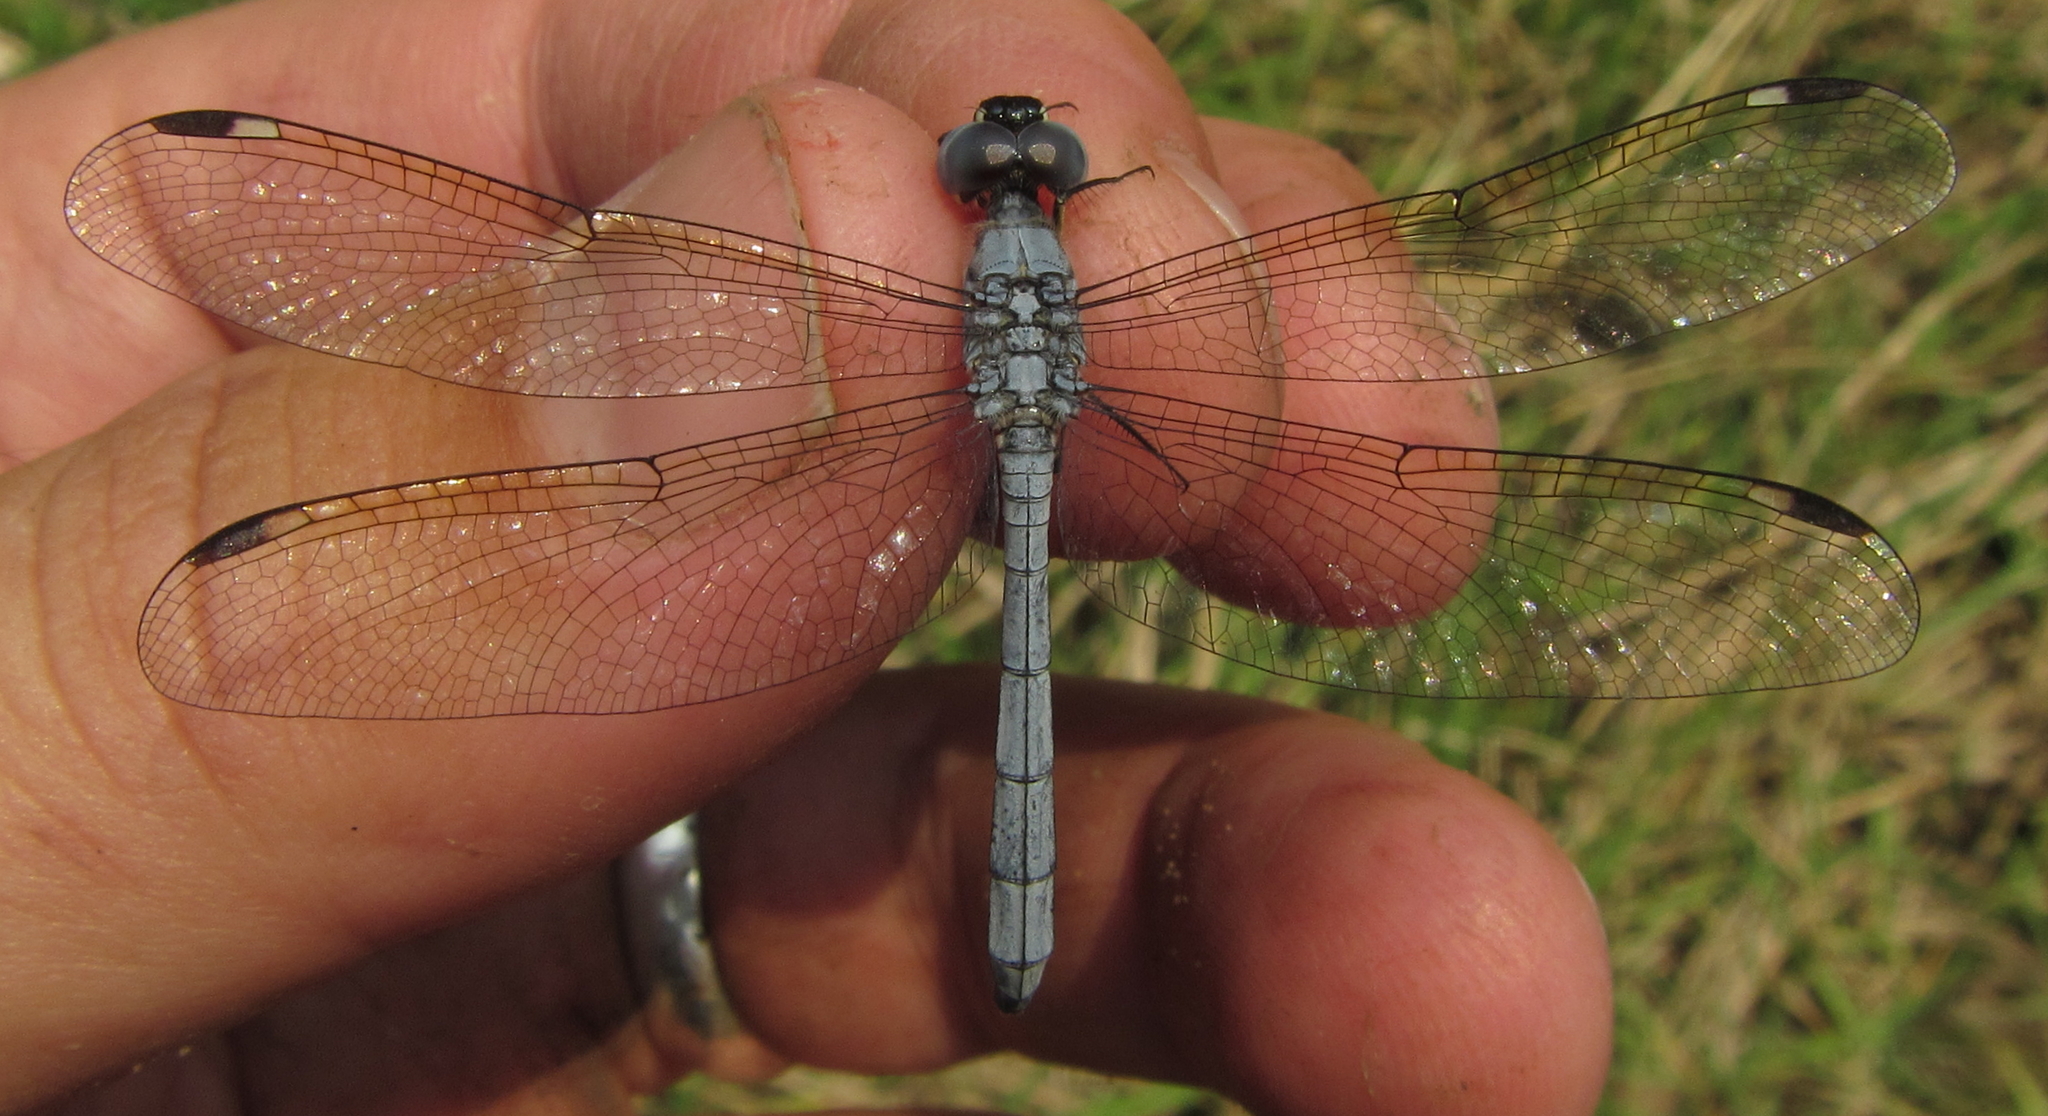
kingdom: Animalia
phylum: Arthropoda
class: Insecta
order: Odonata
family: Libellulidae
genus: Hemistigma
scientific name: Hemistigma albipunctum
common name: African pied-spot
